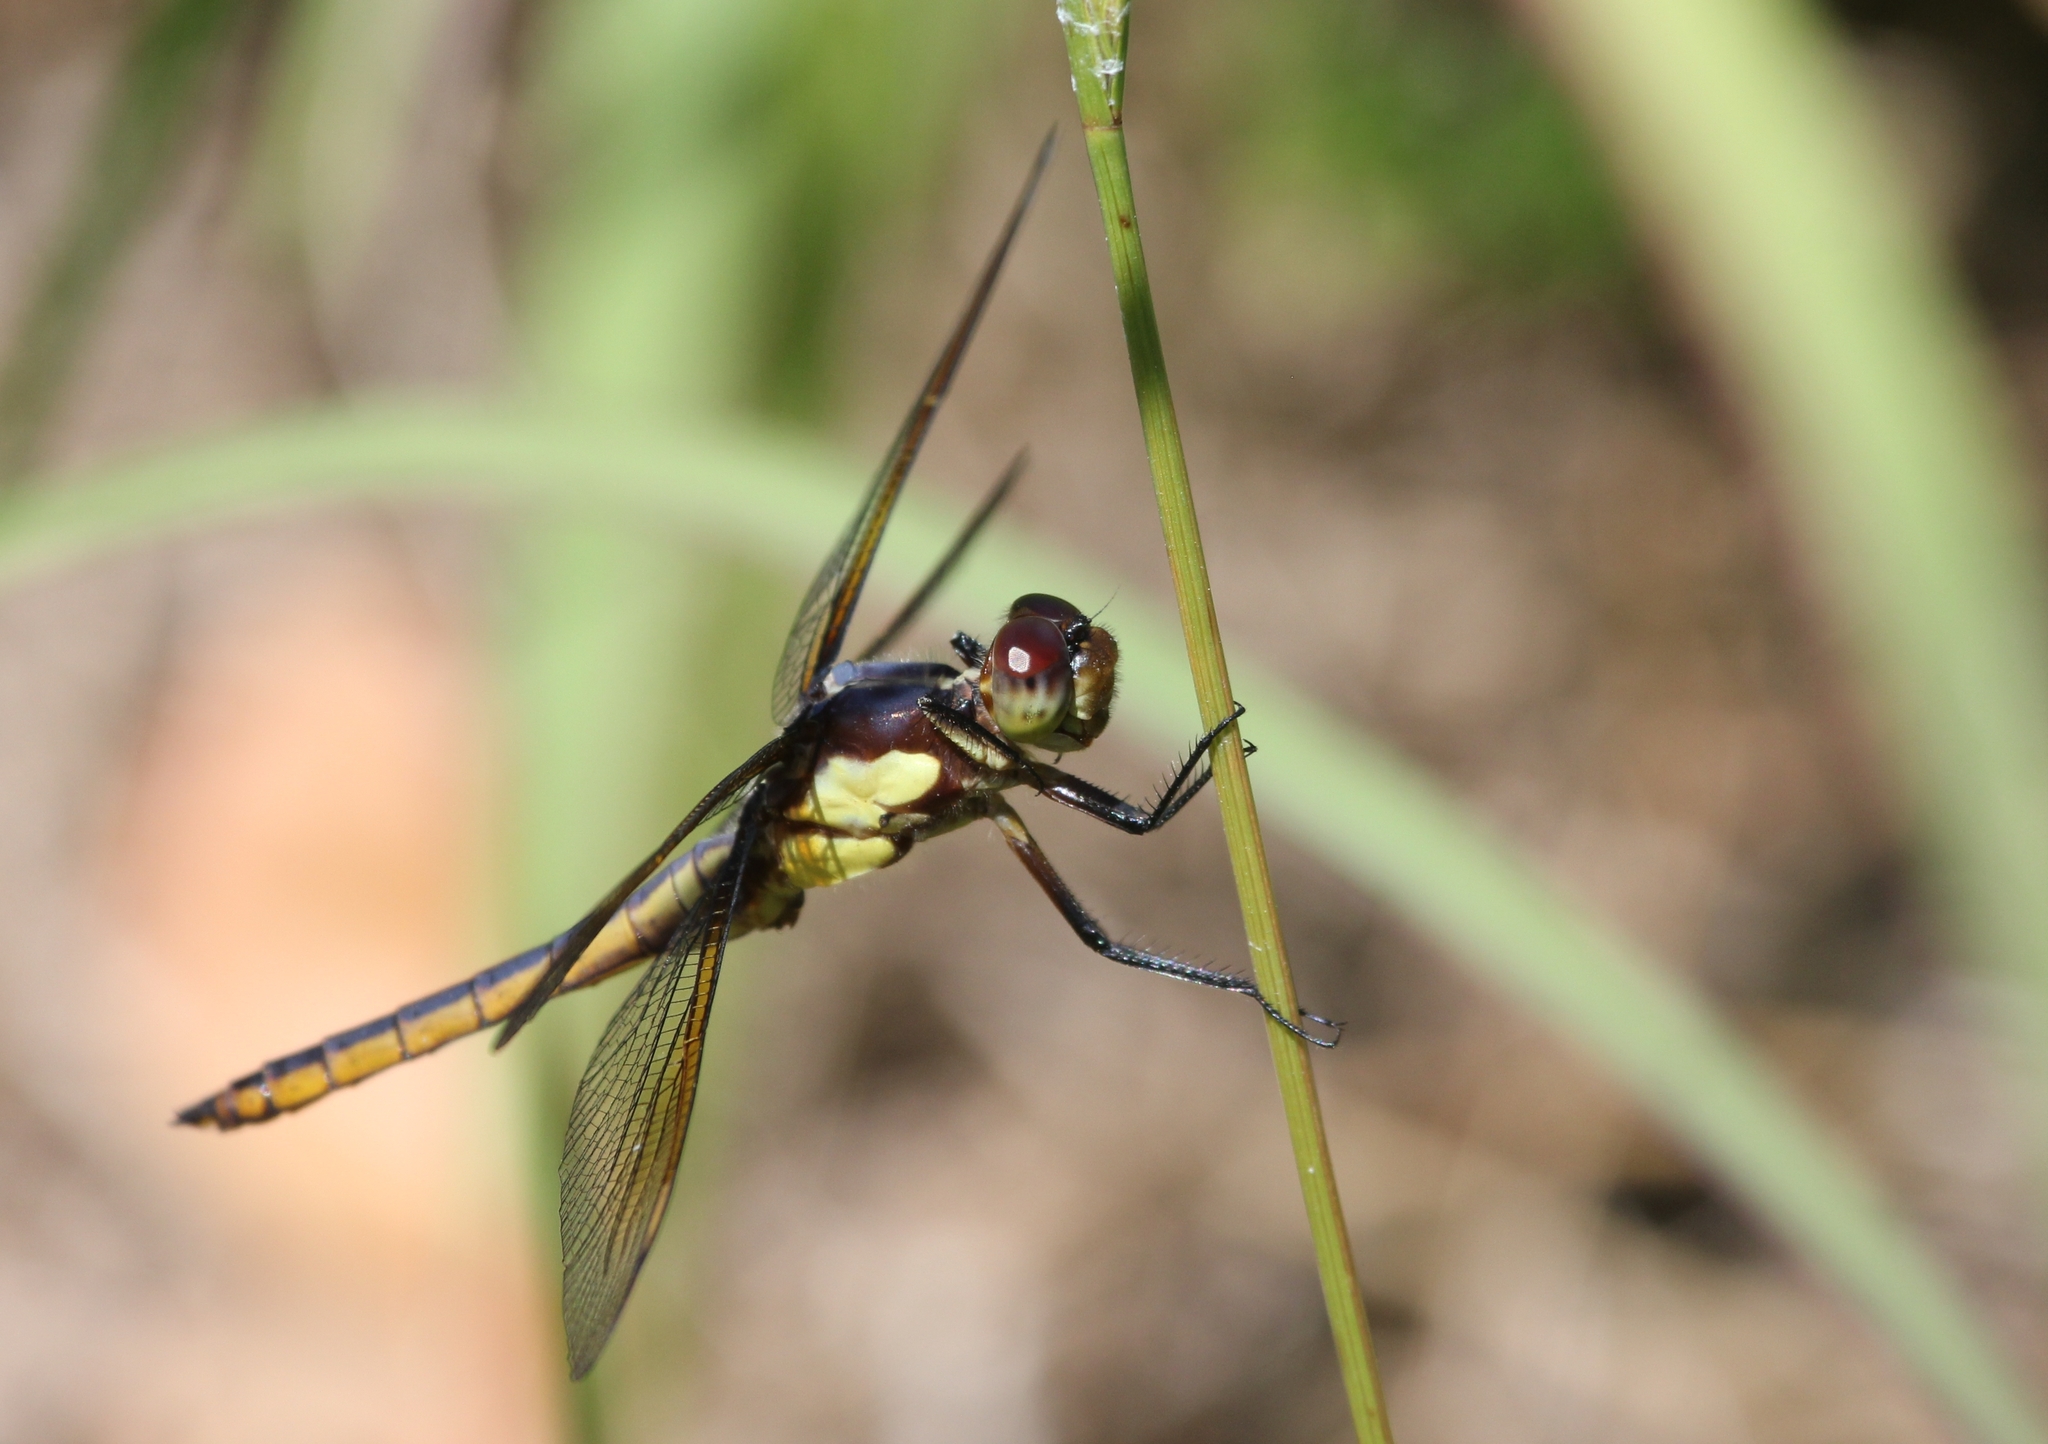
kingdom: Animalia
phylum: Arthropoda
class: Insecta
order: Odonata
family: Libellulidae
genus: Libellula
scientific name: Libellula flavida
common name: Yellow-sided skimmer
